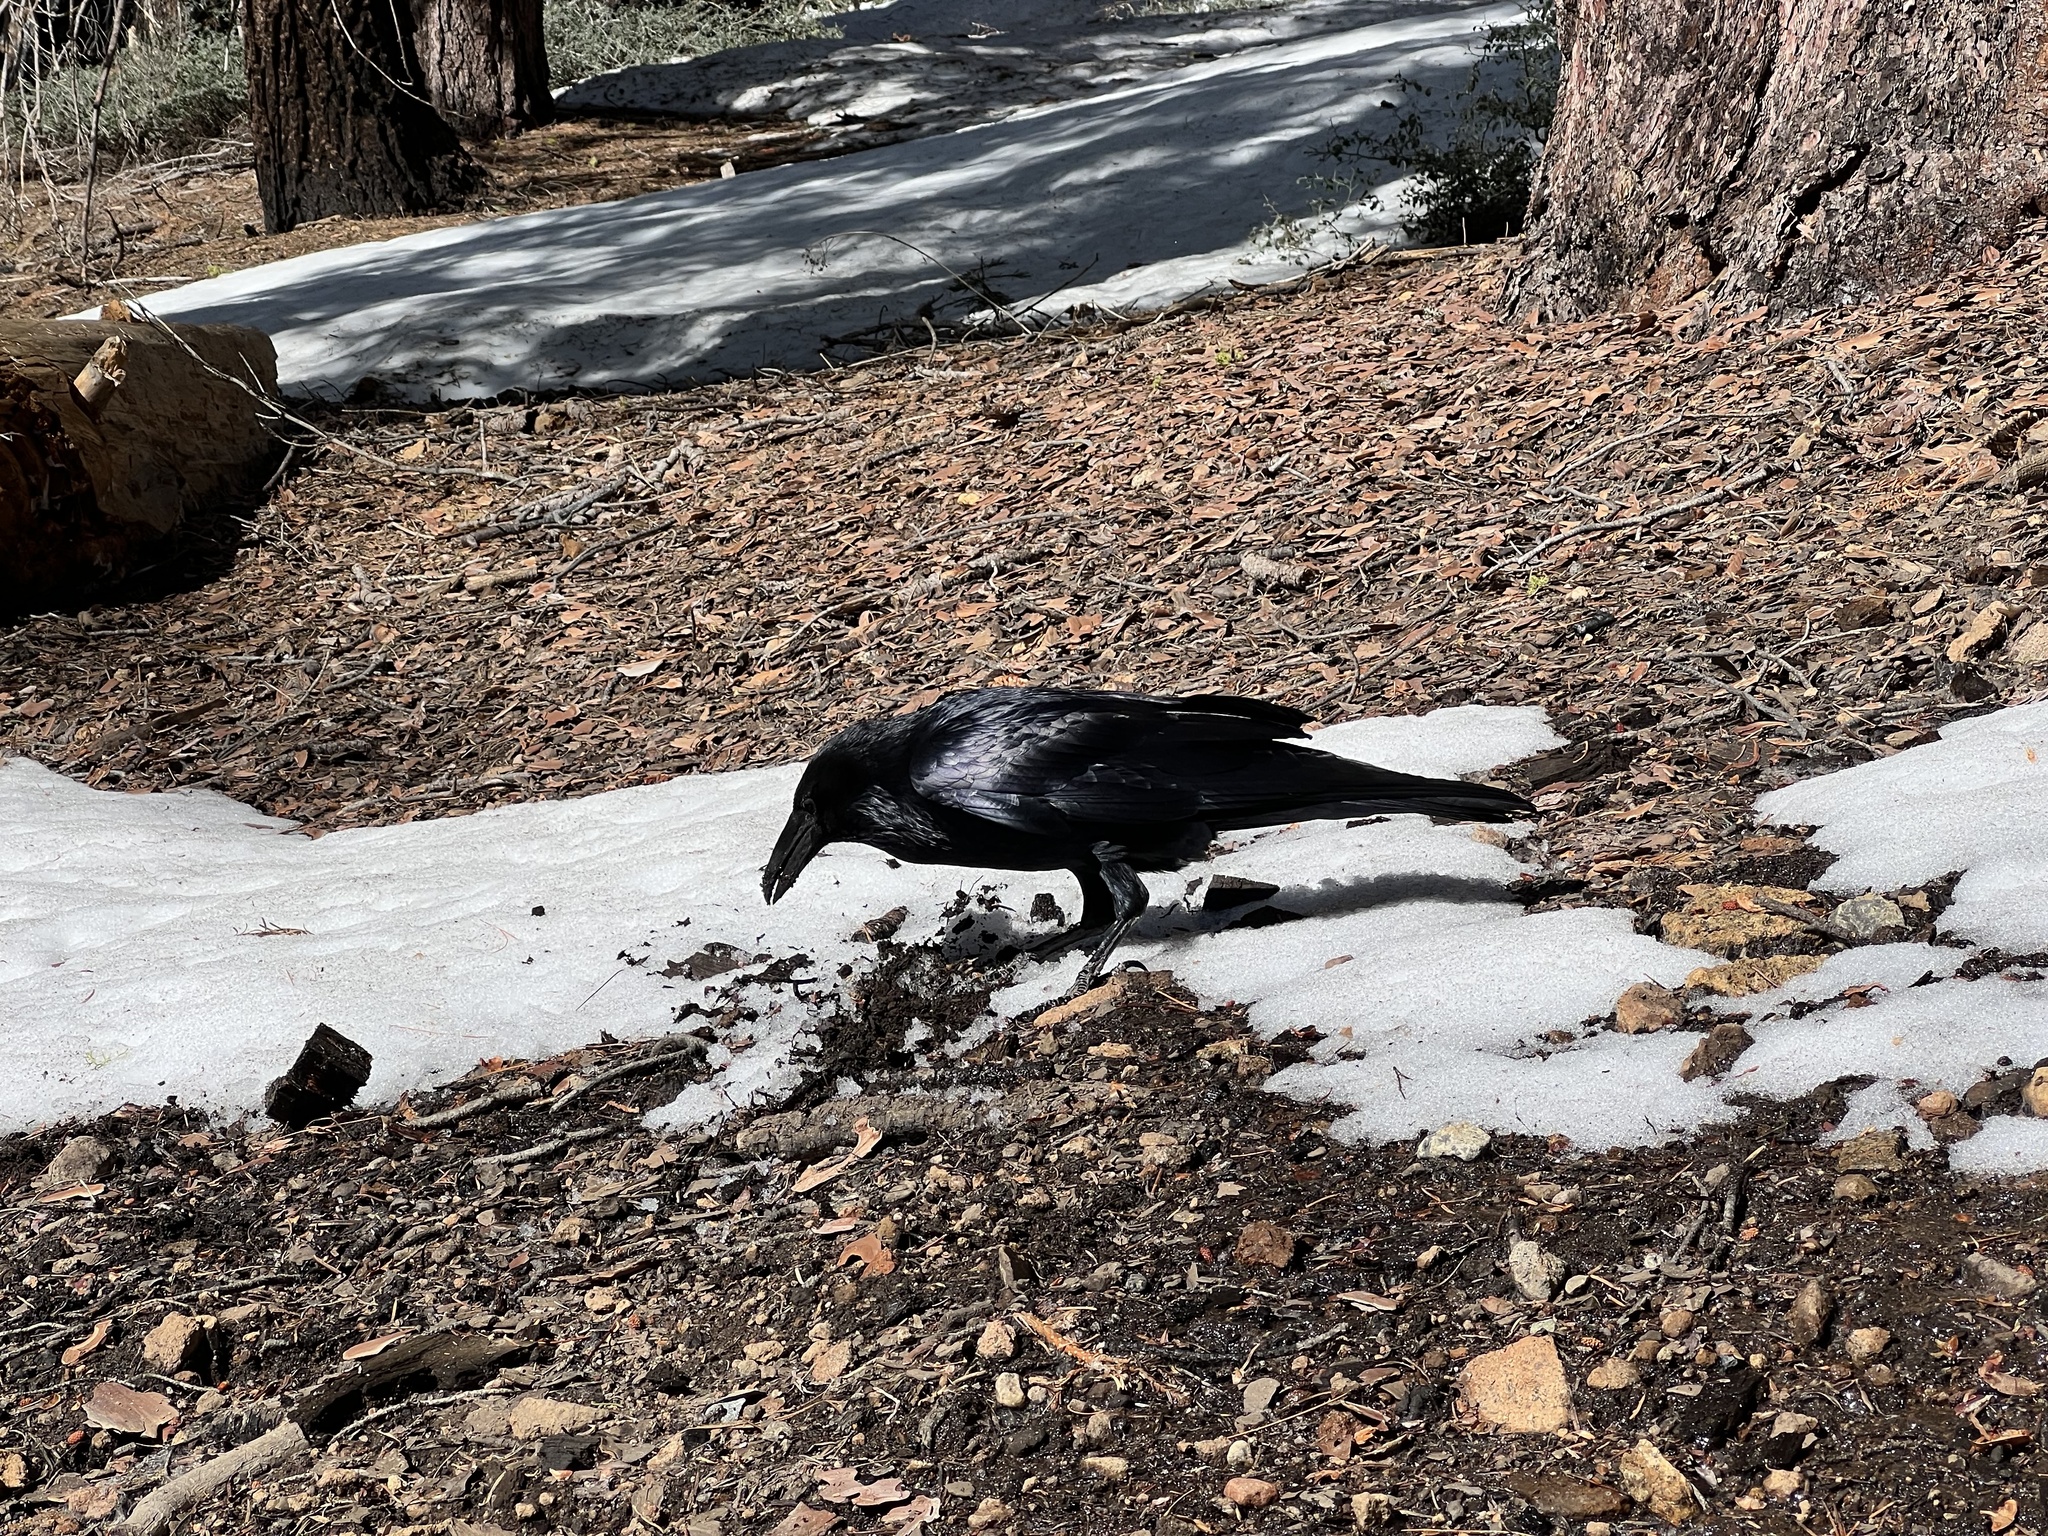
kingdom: Animalia
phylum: Chordata
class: Aves
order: Passeriformes
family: Corvidae
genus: Corvus
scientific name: Corvus corax
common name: Common raven
